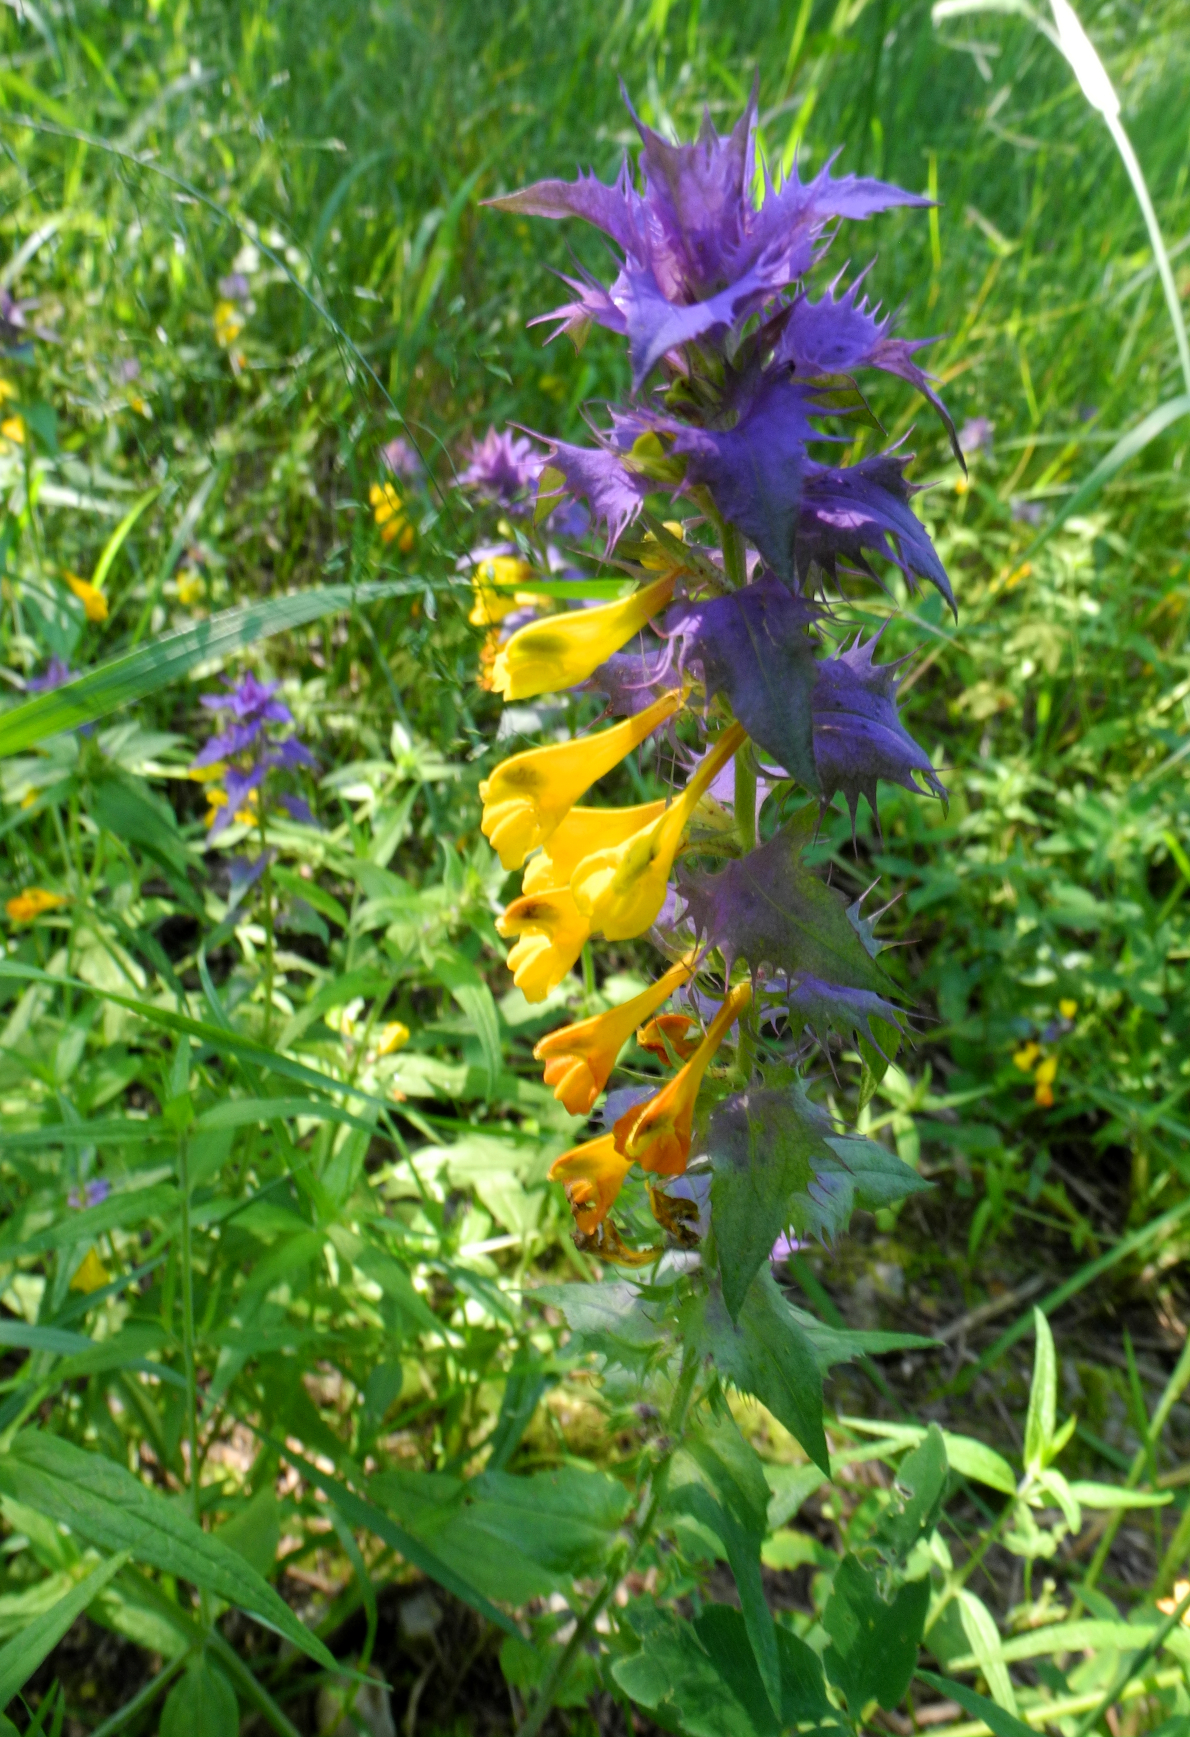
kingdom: Plantae
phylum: Tracheophyta
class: Magnoliopsida
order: Lamiales
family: Orobanchaceae
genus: Melampyrum
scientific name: Melampyrum nemorosum
